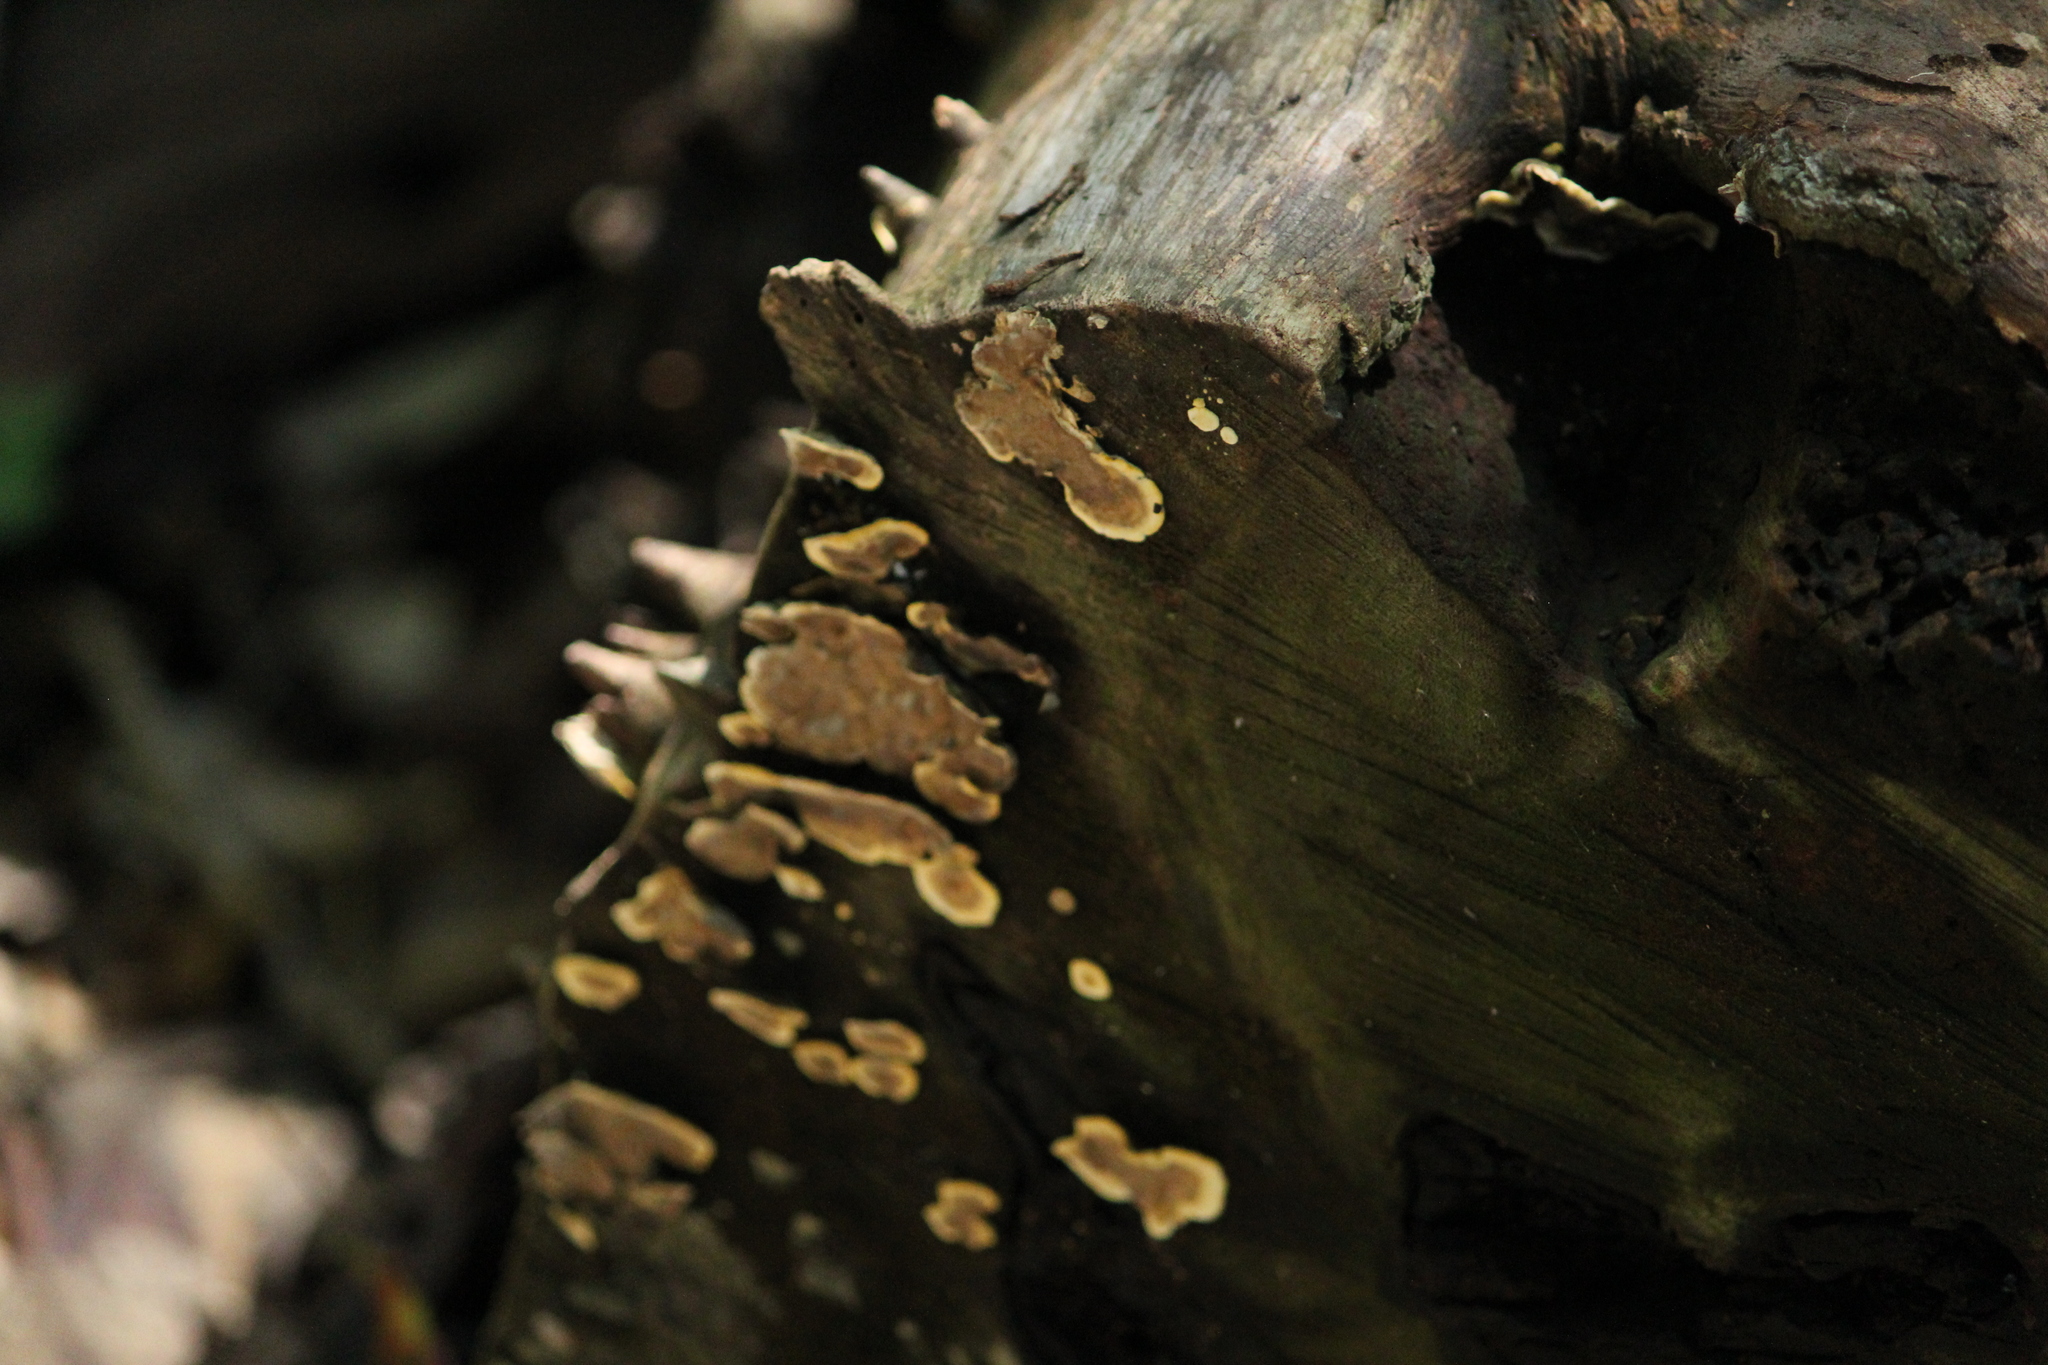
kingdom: Fungi
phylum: Basidiomycota
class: Agaricomycetes
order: Russulales
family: Stereaceae
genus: Stereum
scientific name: Stereum hirsutum
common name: Hairy curtain crust
